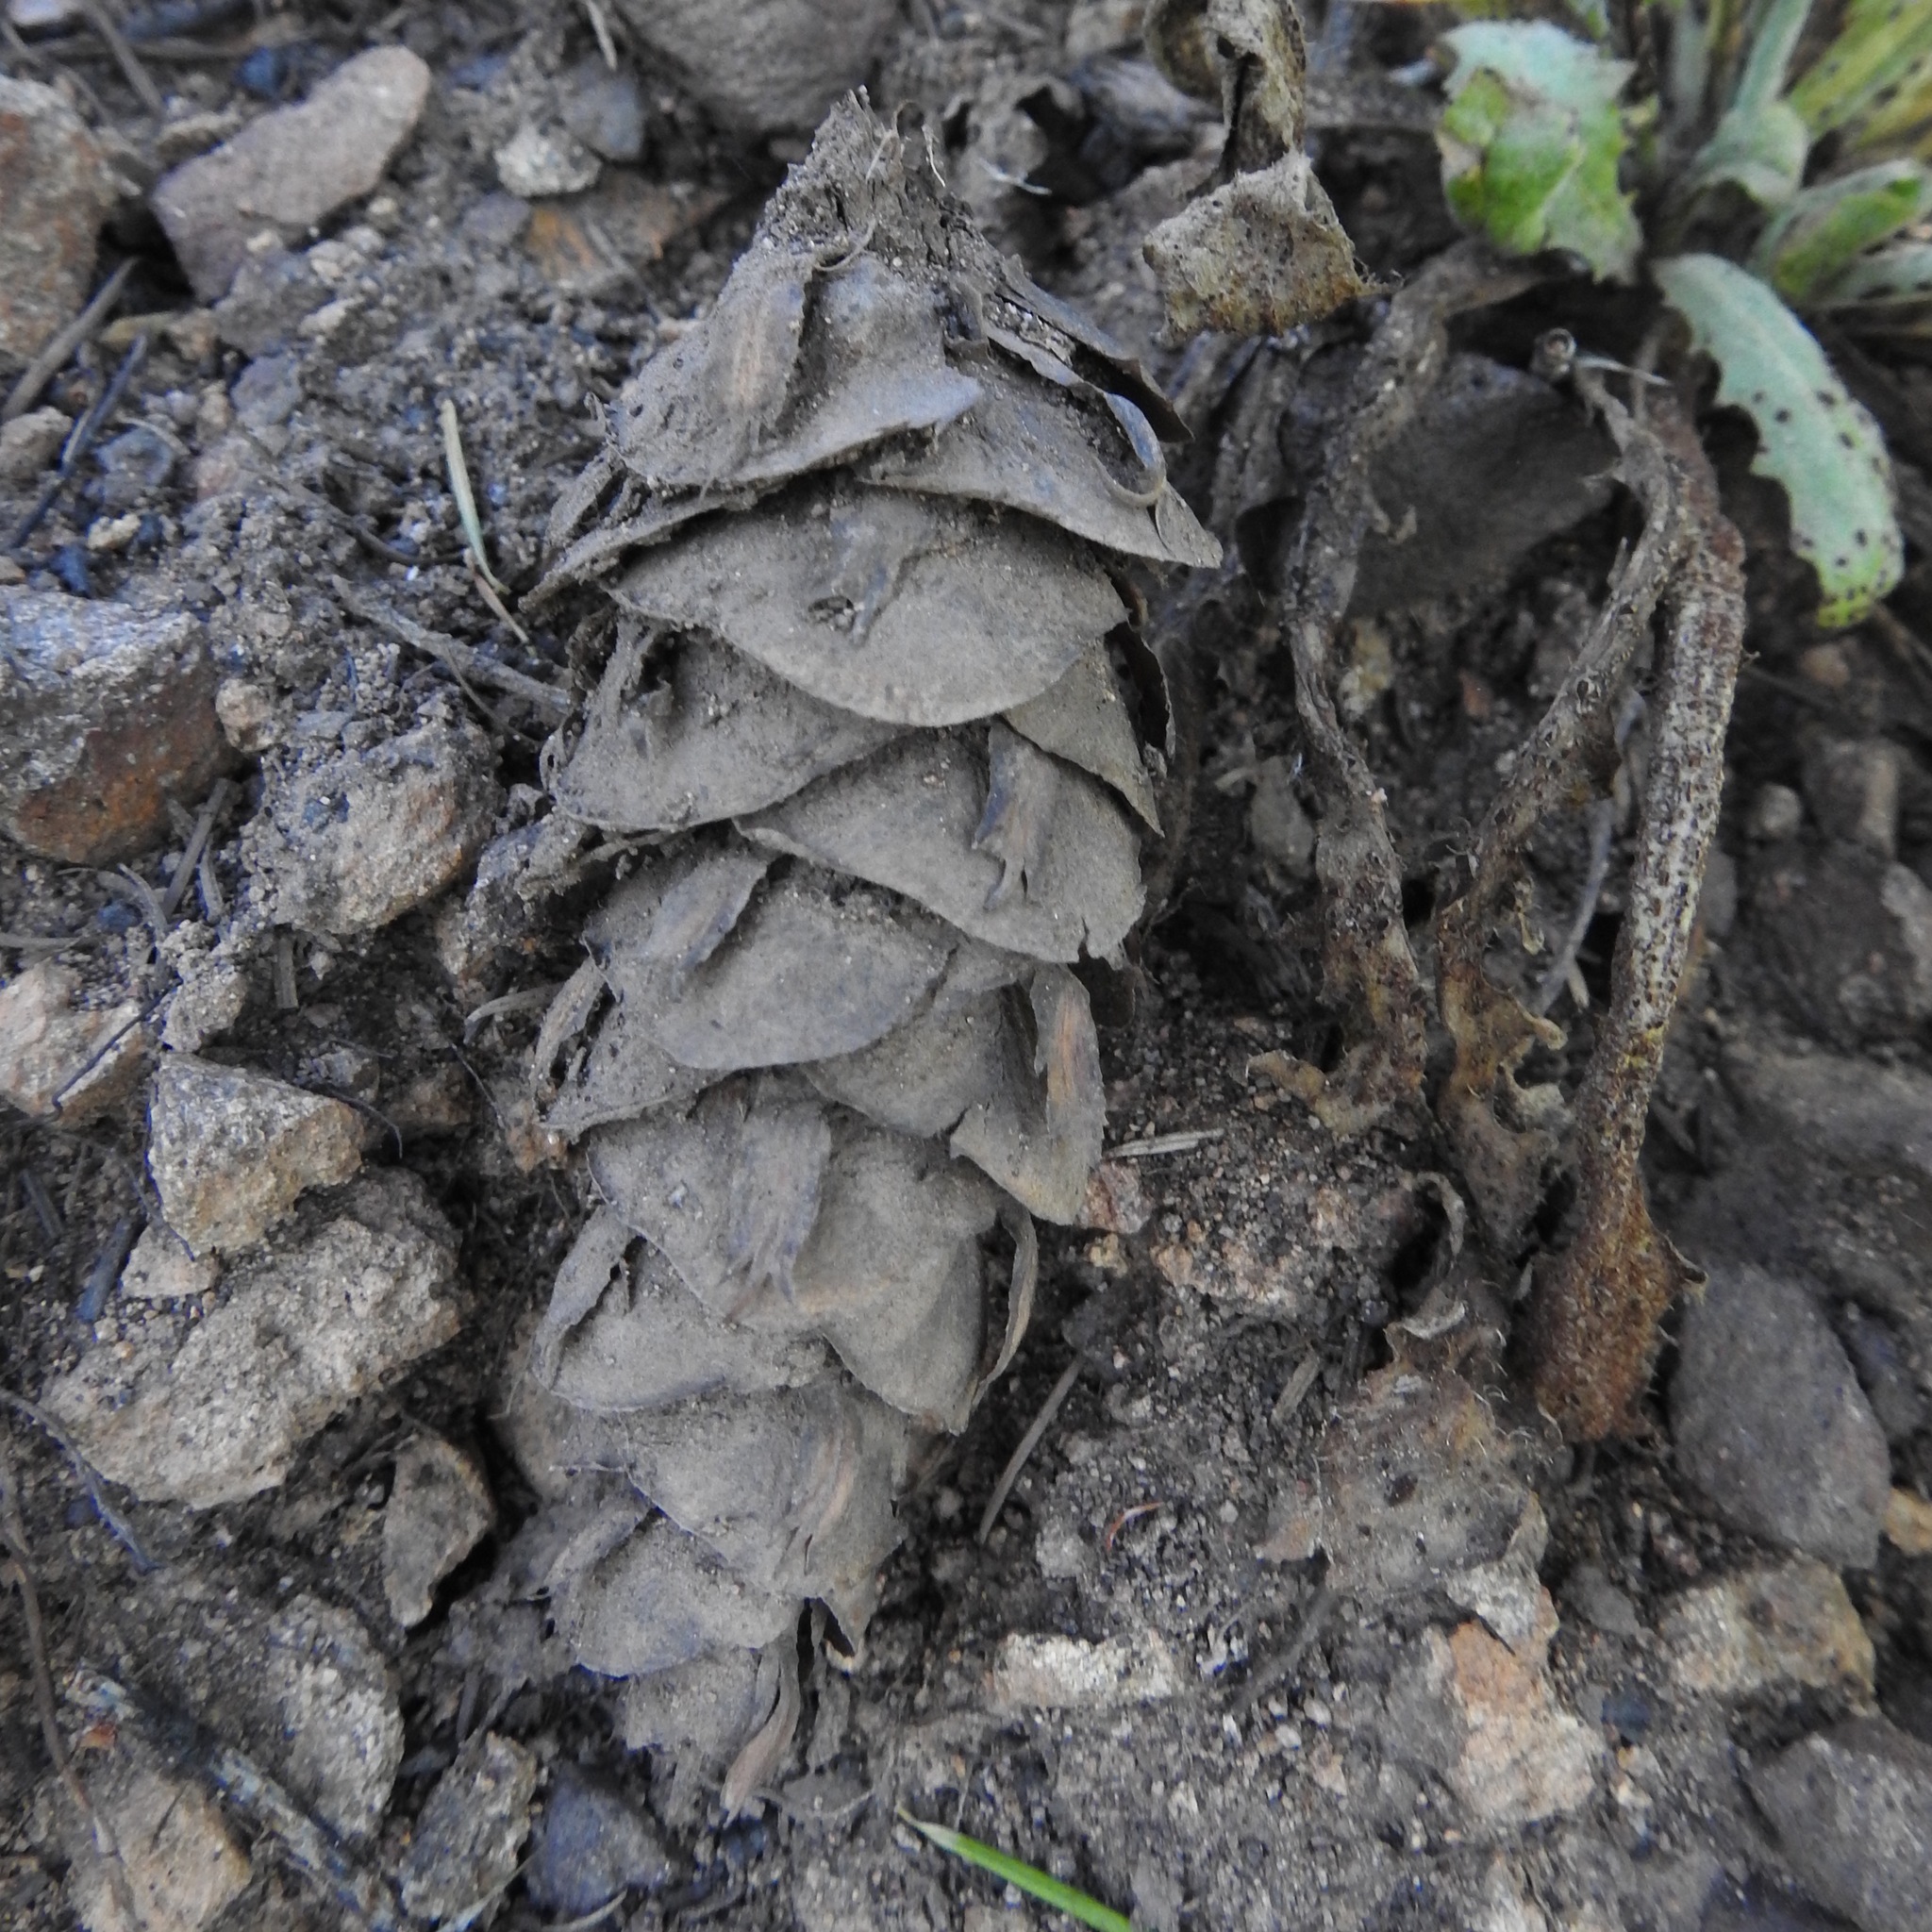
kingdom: Plantae
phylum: Tracheophyta
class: Pinopsida
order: Pinales
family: Pinaceae
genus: Pseudotsuga
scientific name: Pseudotsuga menziesii
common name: Douglas fir
